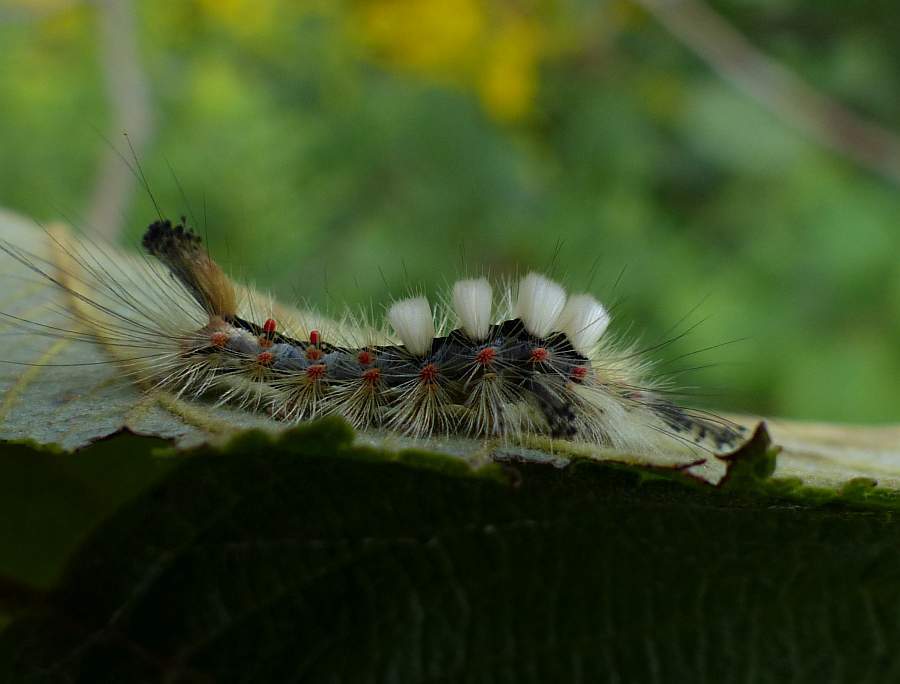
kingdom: Animalia
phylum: Arthropoda
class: Insecta
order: Lepidoptera
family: Erebidae
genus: Orgyia
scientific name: Orgyia antiqua
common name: Vapourer
